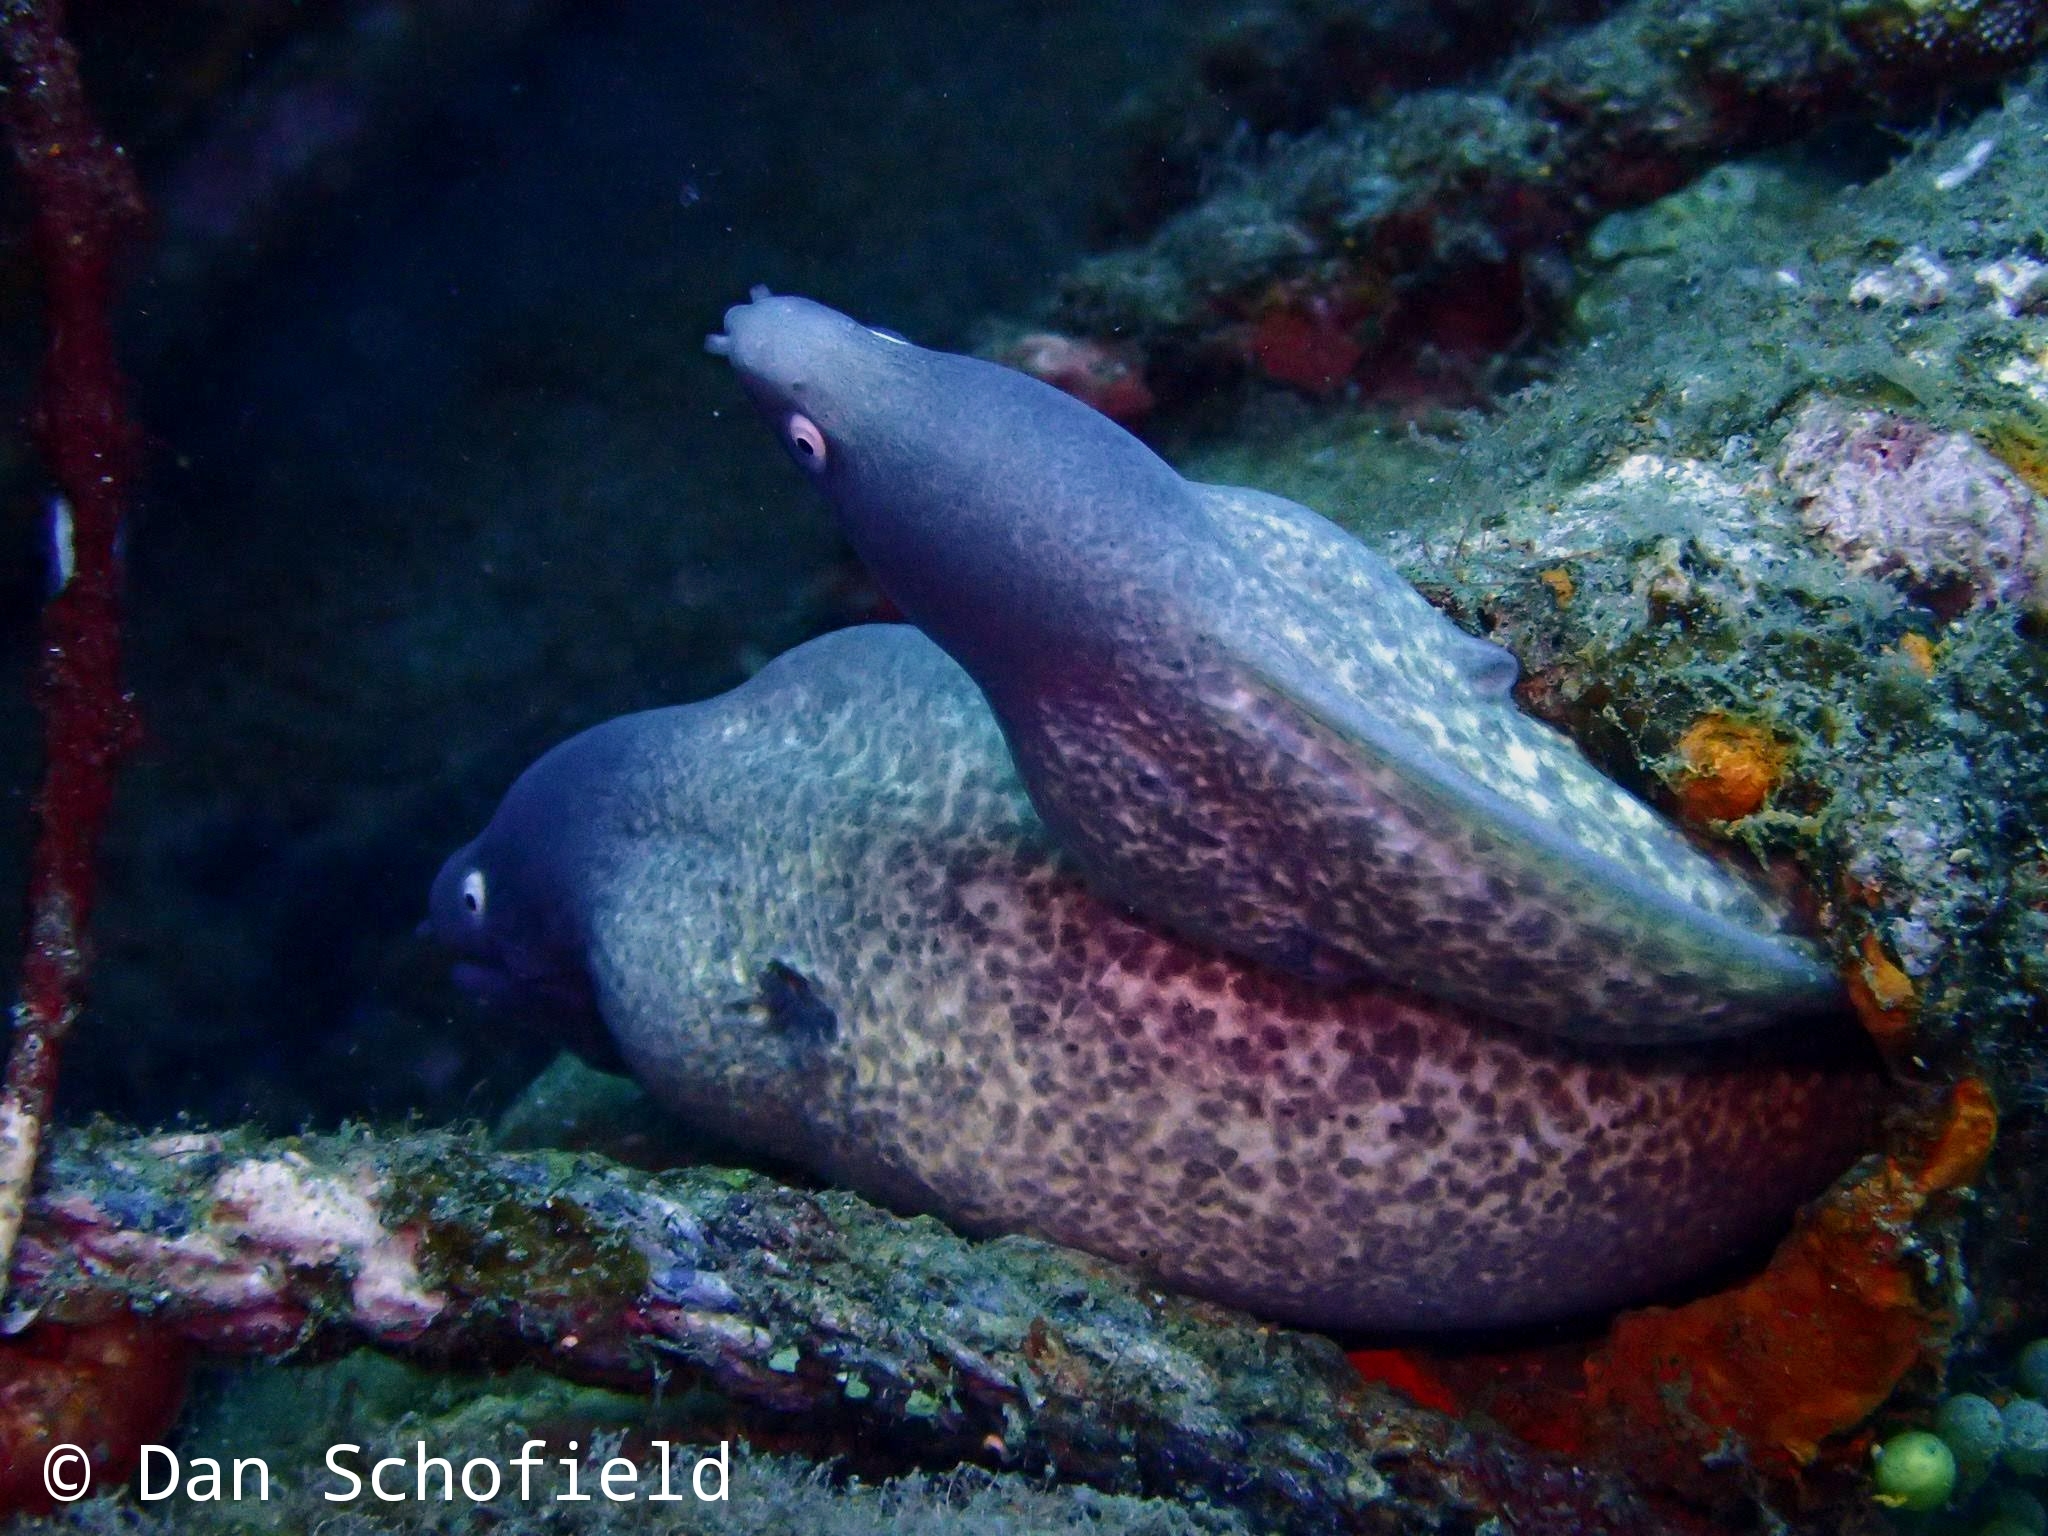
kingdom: Animalia
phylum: Chordata
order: Anguilliformes
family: Muraenidae
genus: Gymnothorax
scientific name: Gymnothorax thyrsoideus
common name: Greyface moray
